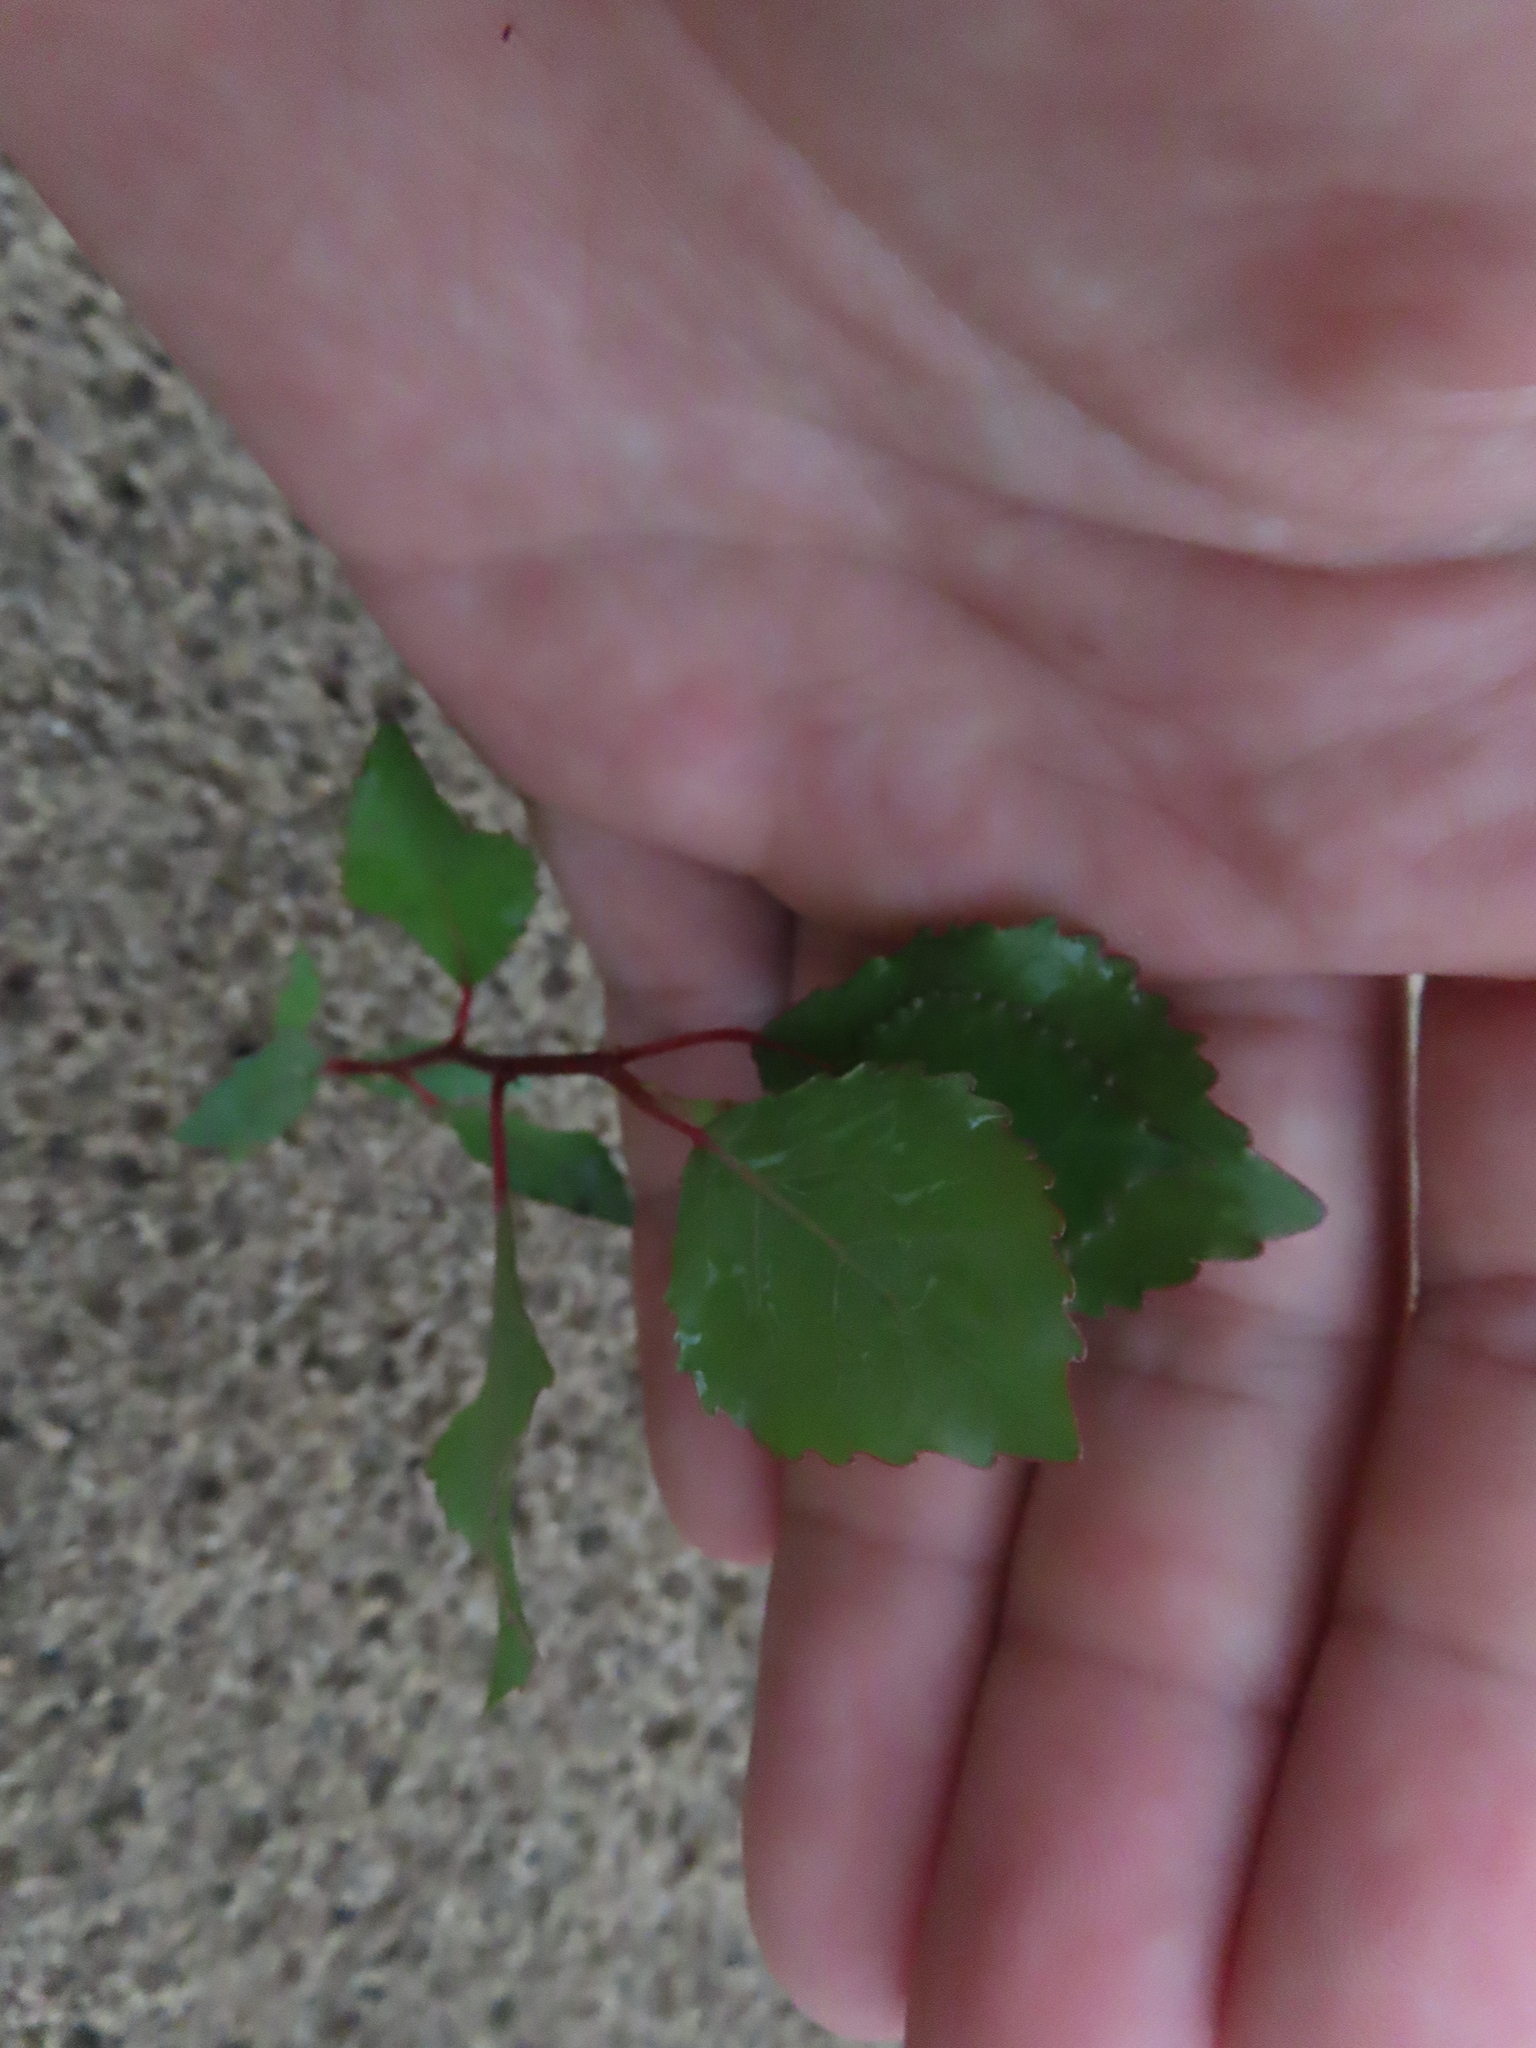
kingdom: Plantae
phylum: Tracheophyta
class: Magnoliopsida
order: Malpighiales
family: Salicaceae
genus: Populus
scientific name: Populus deltoides
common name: Eastern cottonwood
